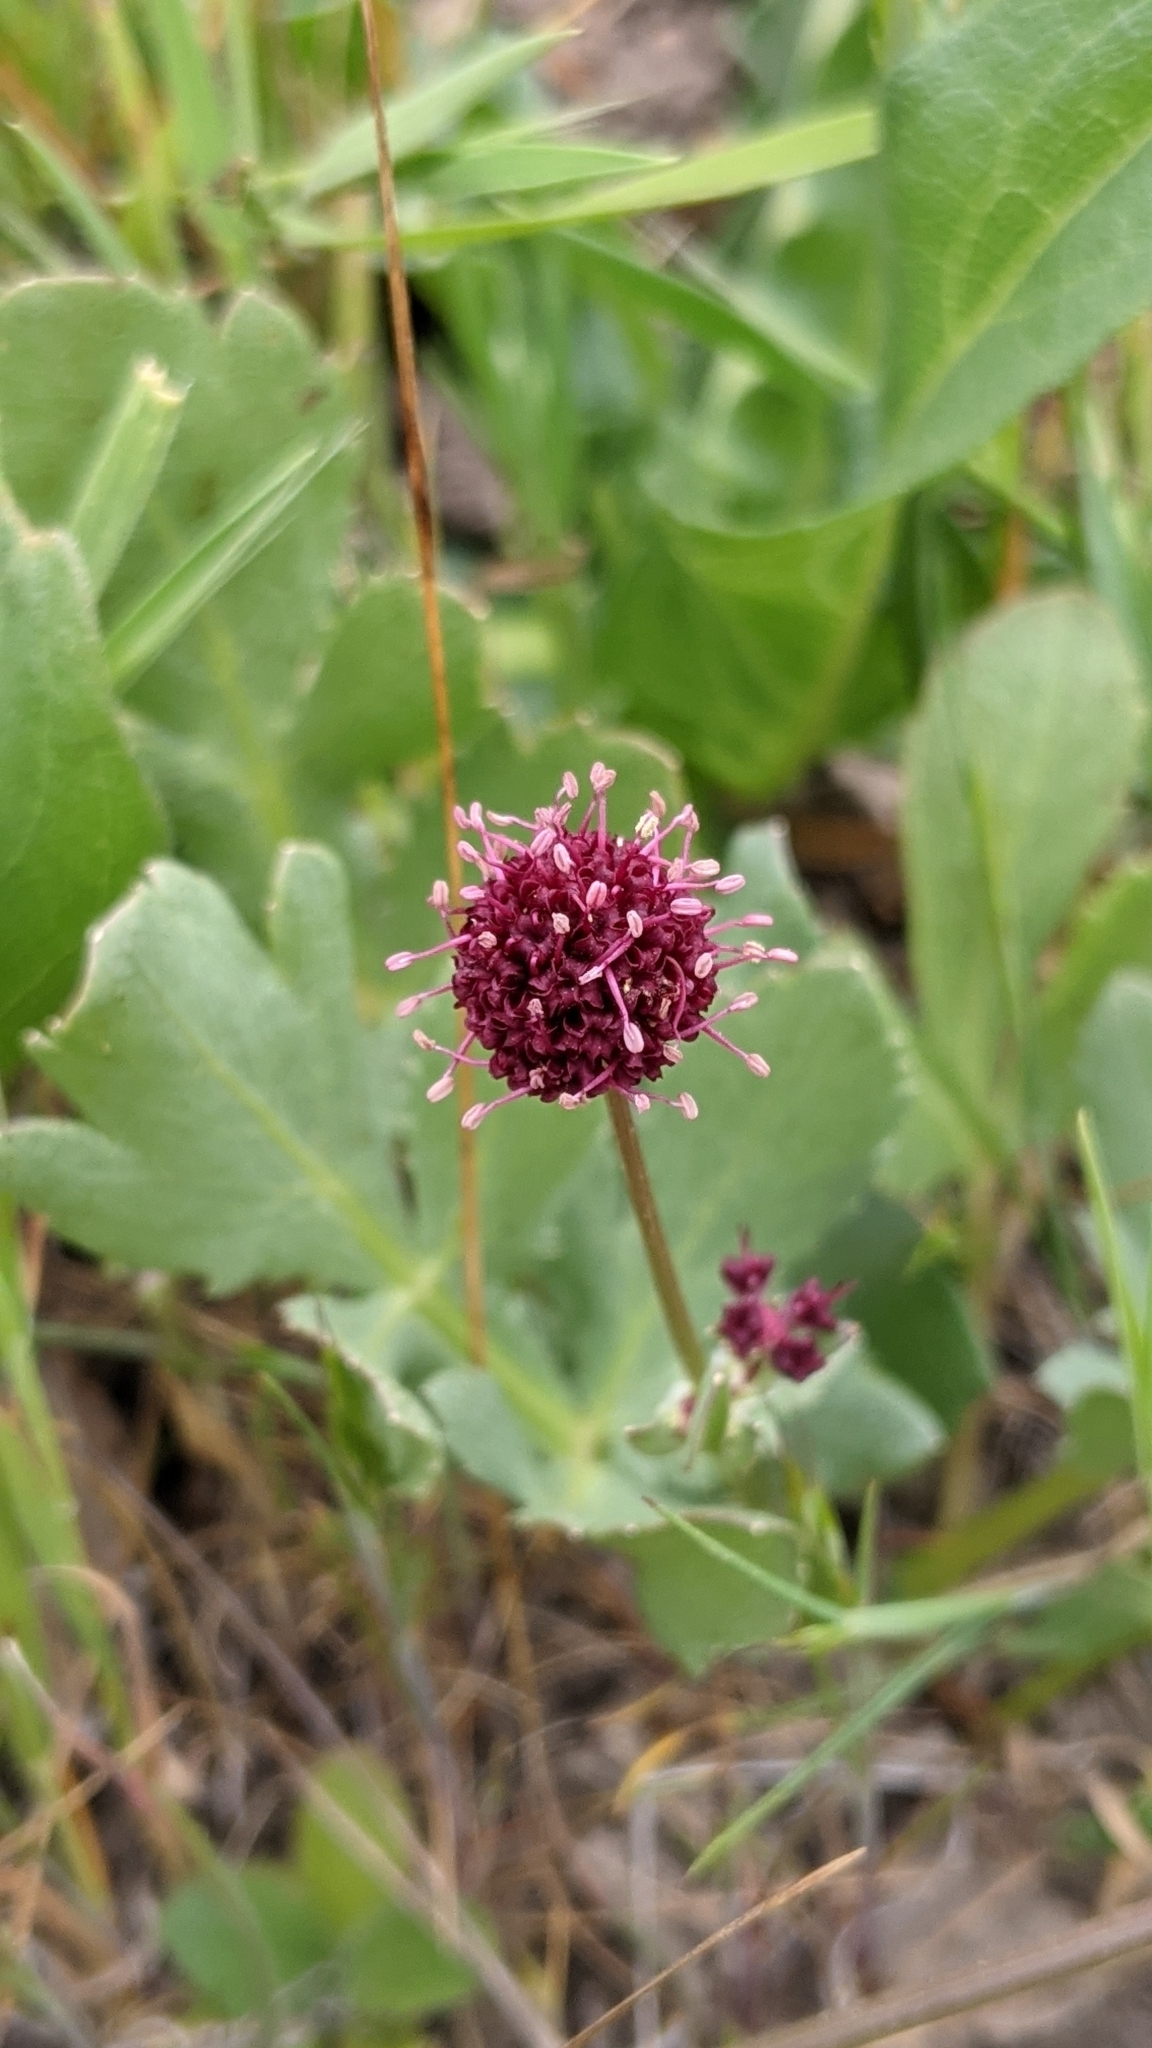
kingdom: Plantae
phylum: Tracheophyta
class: Magnoliopsida
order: Apiales
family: Apiaceae
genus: Sanicula
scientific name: Sanicula bipinnatifida
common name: Shoe-buttons
